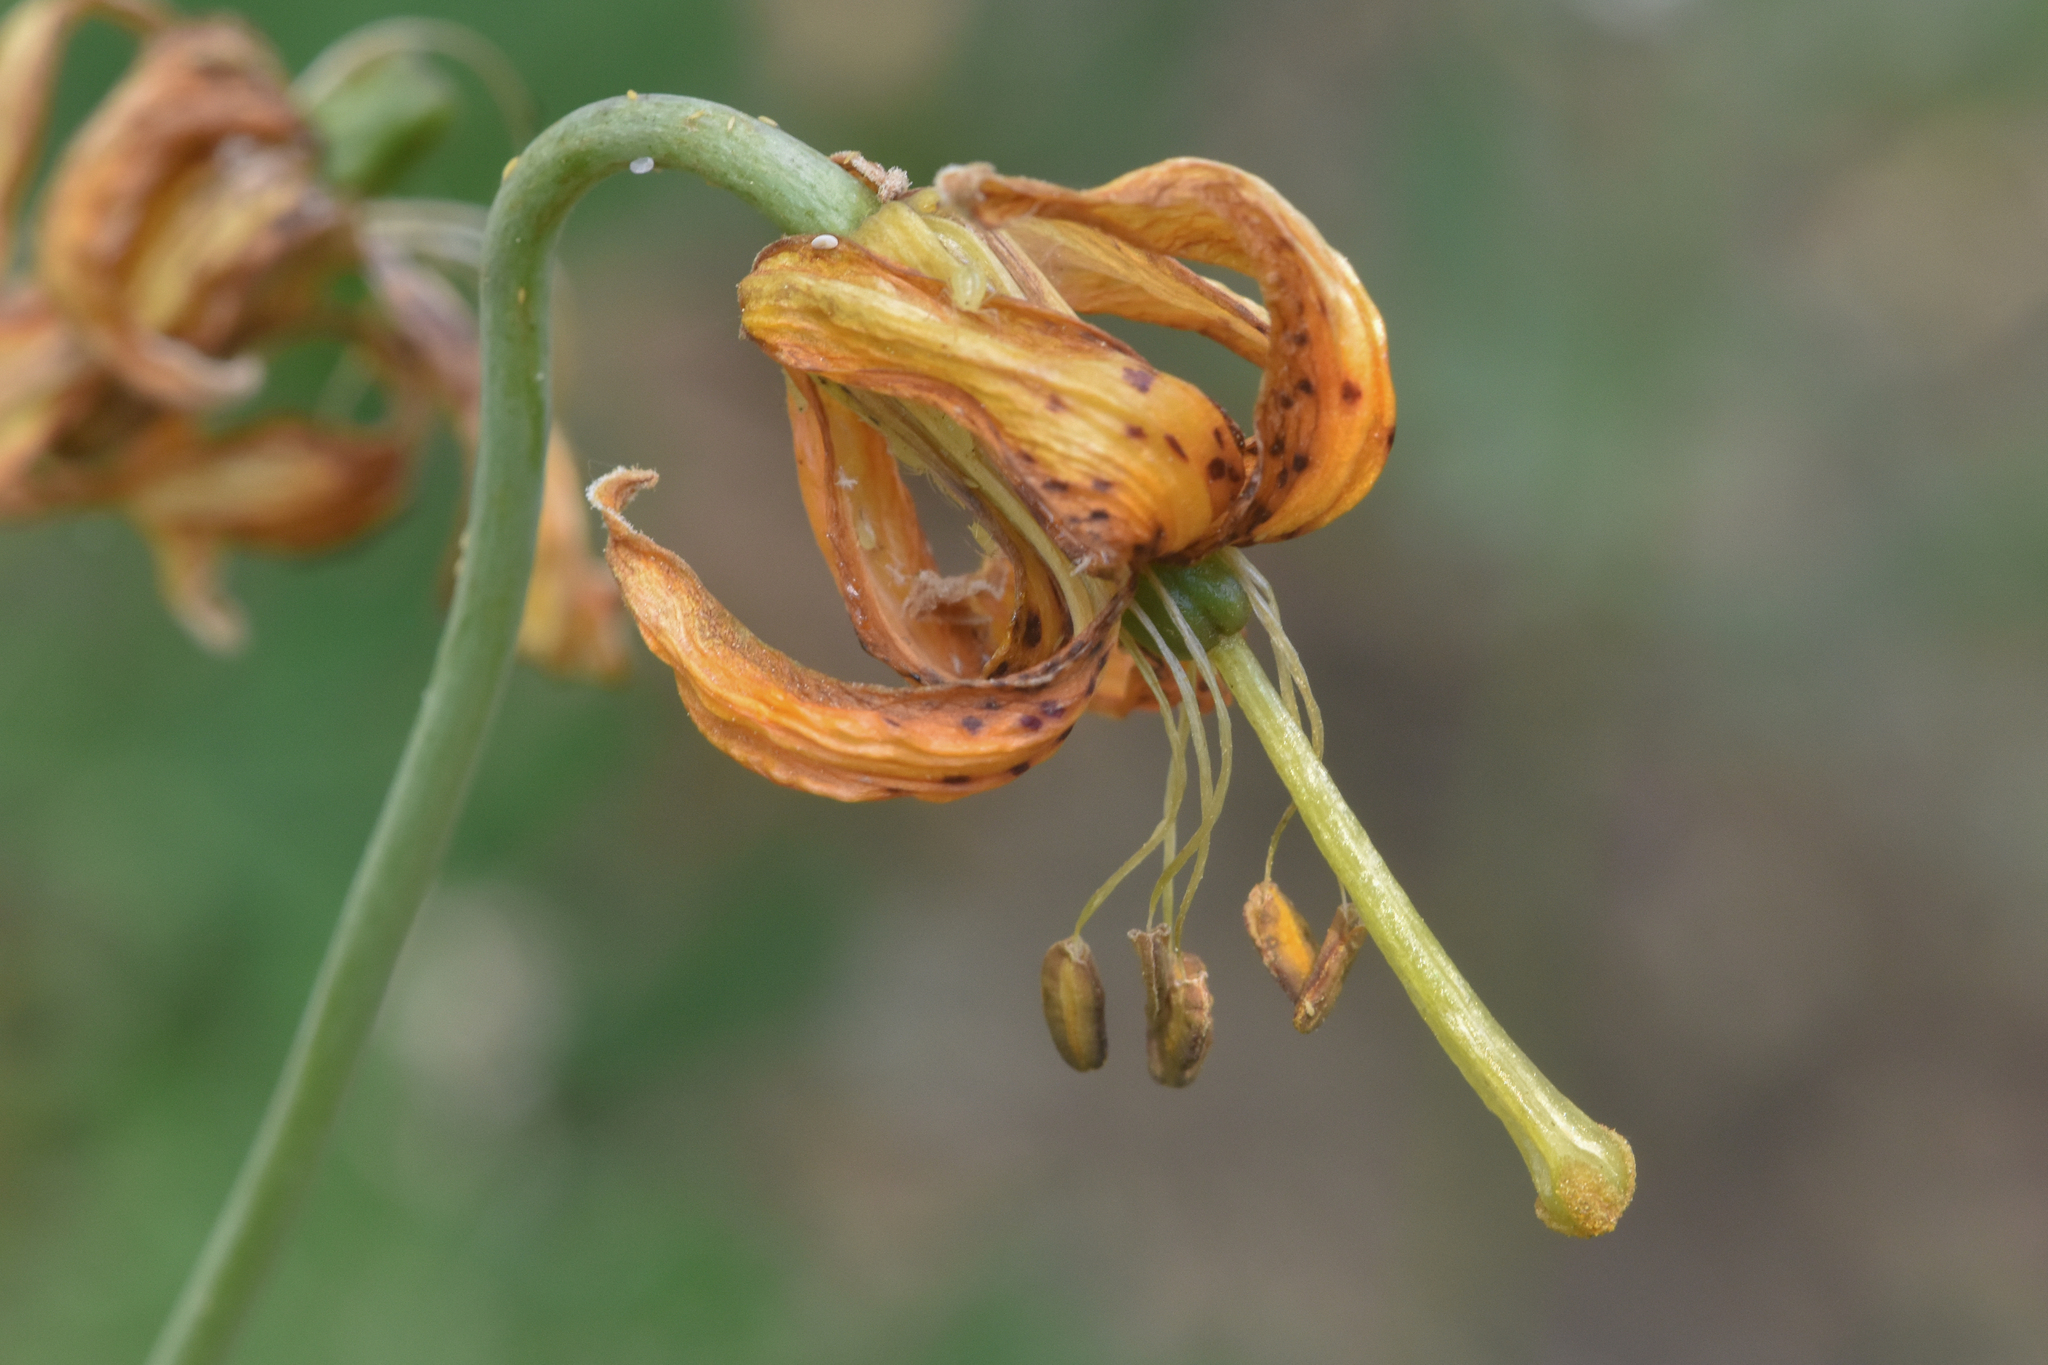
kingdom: Plantae
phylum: Tracheophyta
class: Liliopsida
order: Liliales
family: Liliaceae
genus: Lilium
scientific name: Lilium columbianum
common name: Columbia lily
